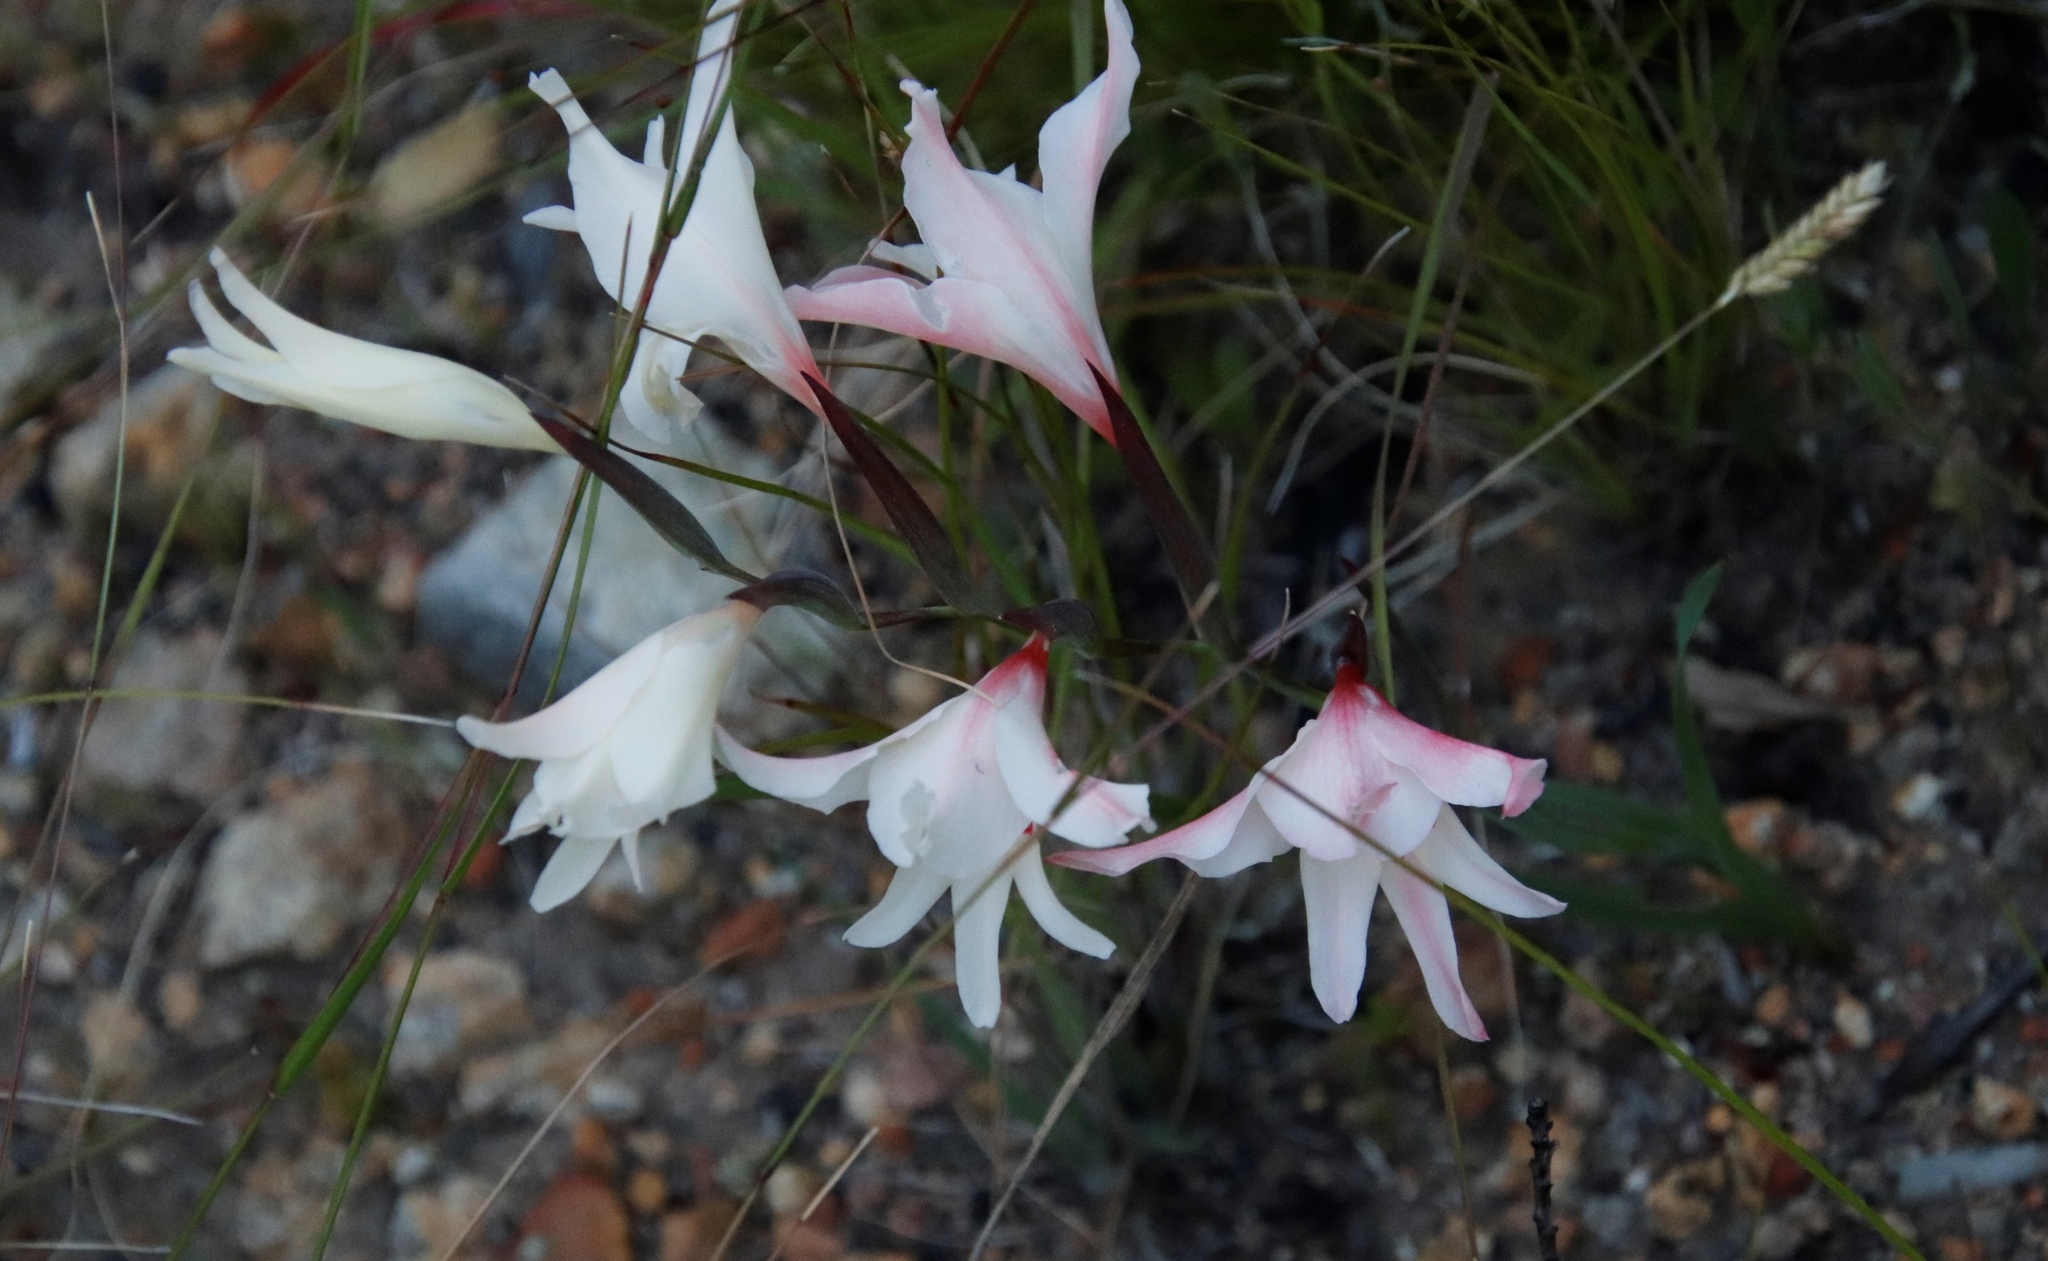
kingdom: Plantae
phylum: Tracheophyta
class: Liliopsida
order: Asparagales
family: Iridaceae
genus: Gladiolus
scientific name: Gladiolus undulatus
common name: Large painted-lady
